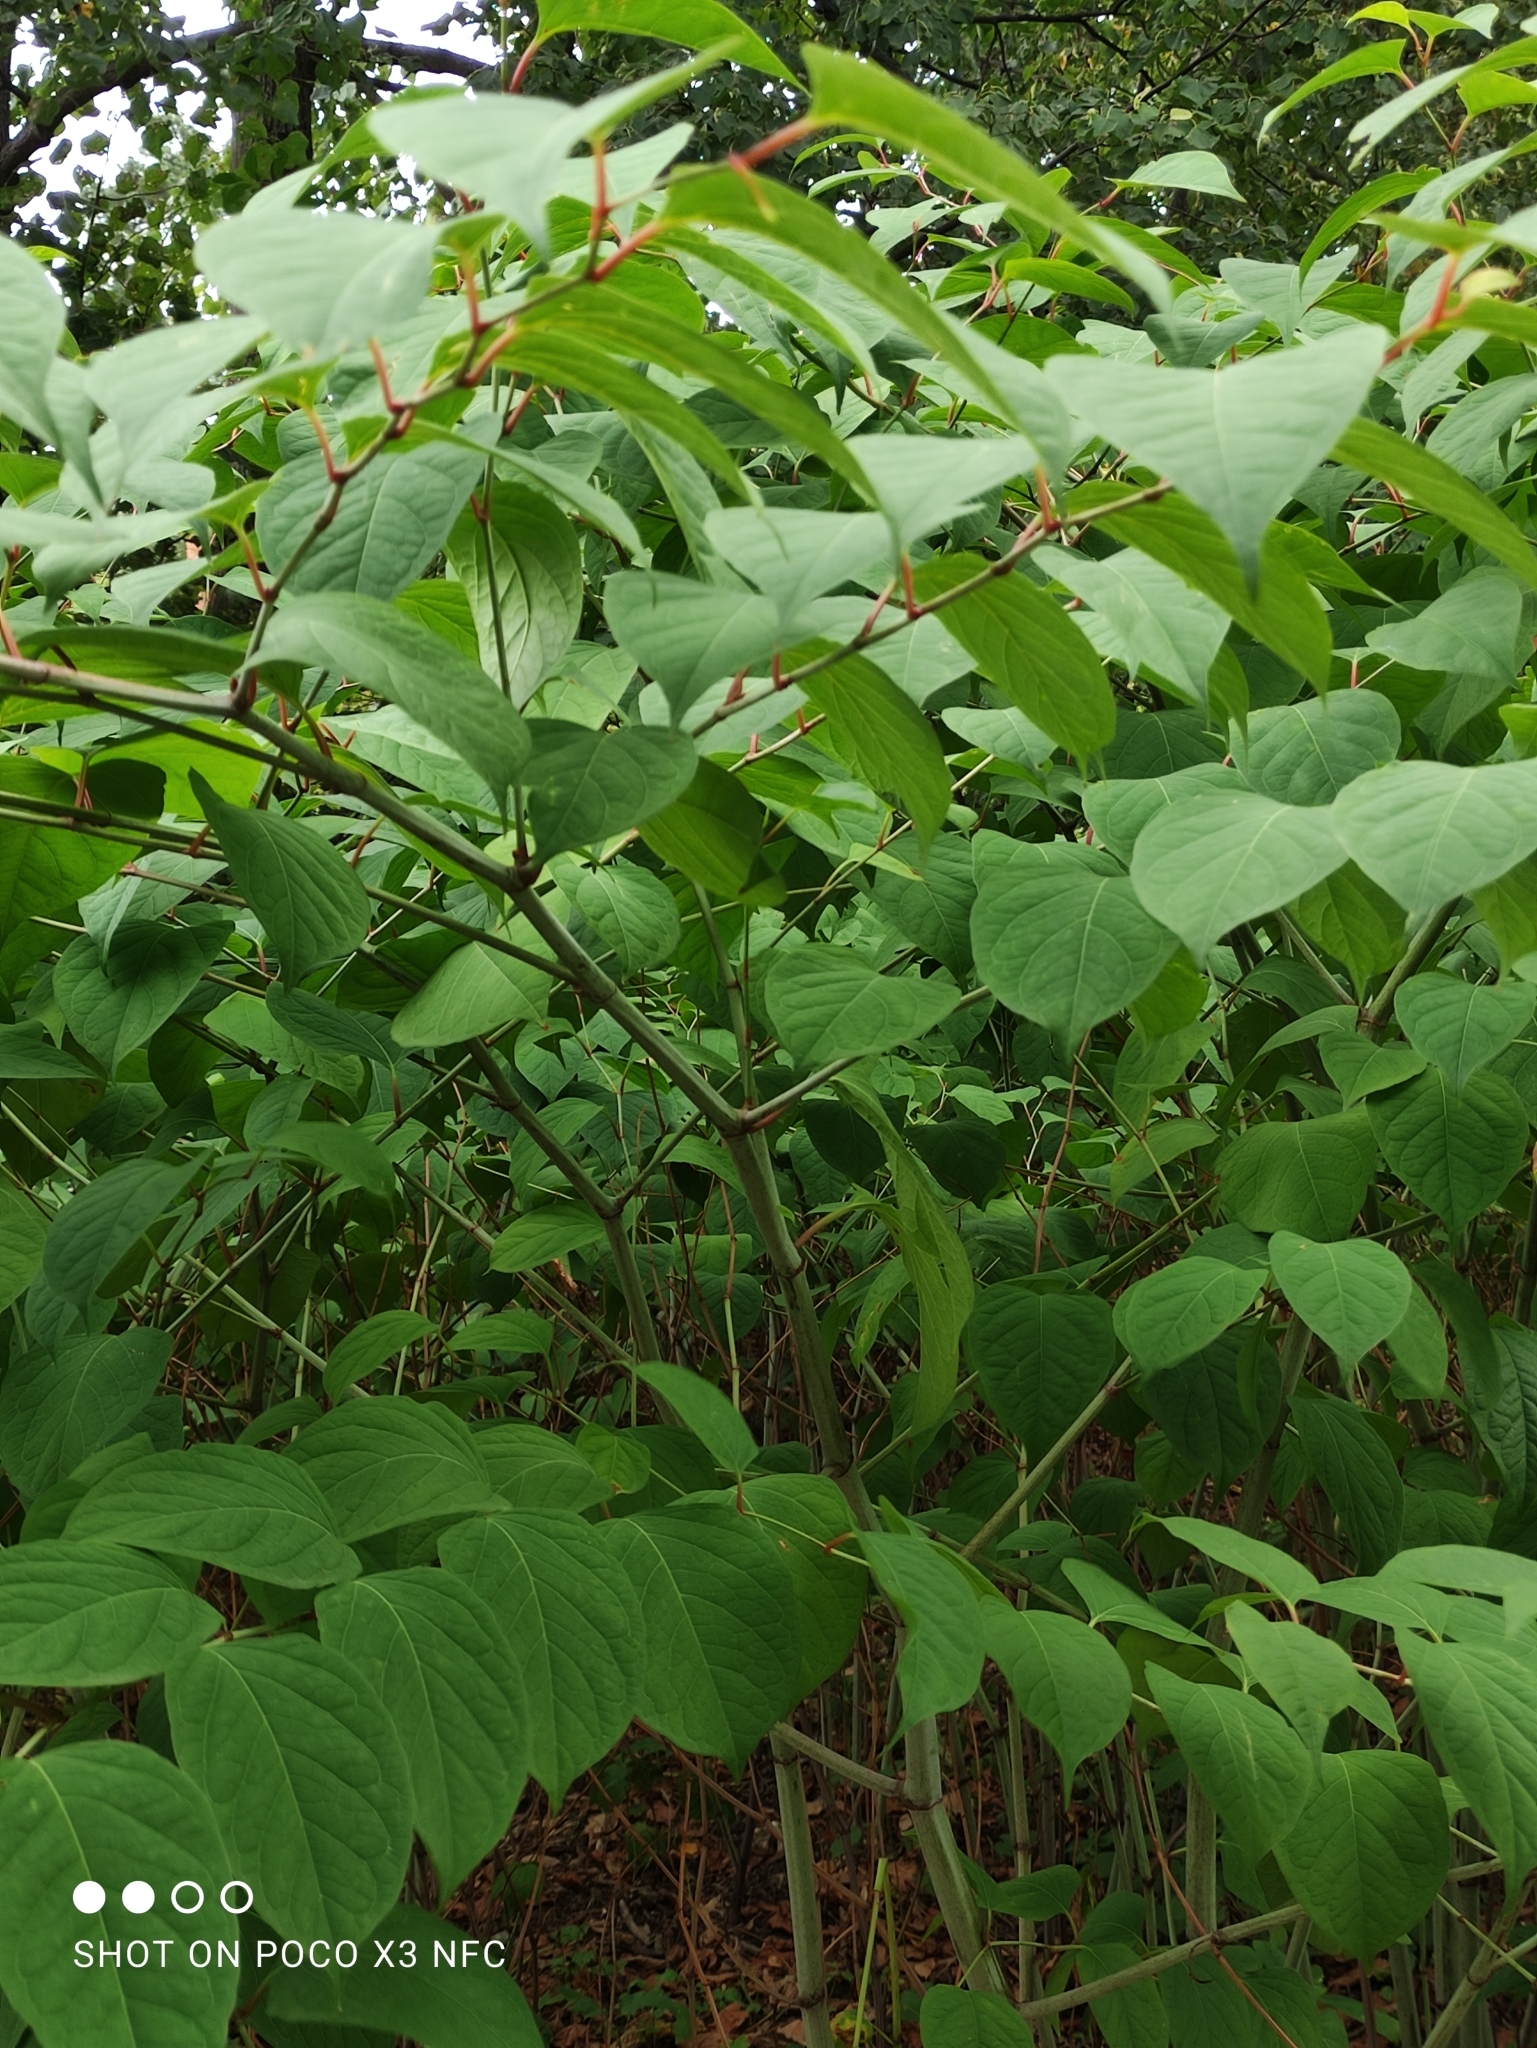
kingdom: Plantae
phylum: Tracheophyta
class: Magnoliopsida
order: Caryophyllales
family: Polygonaceae
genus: Reynoutria
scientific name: Reynoutria bohemica
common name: Bohemian knotweed
